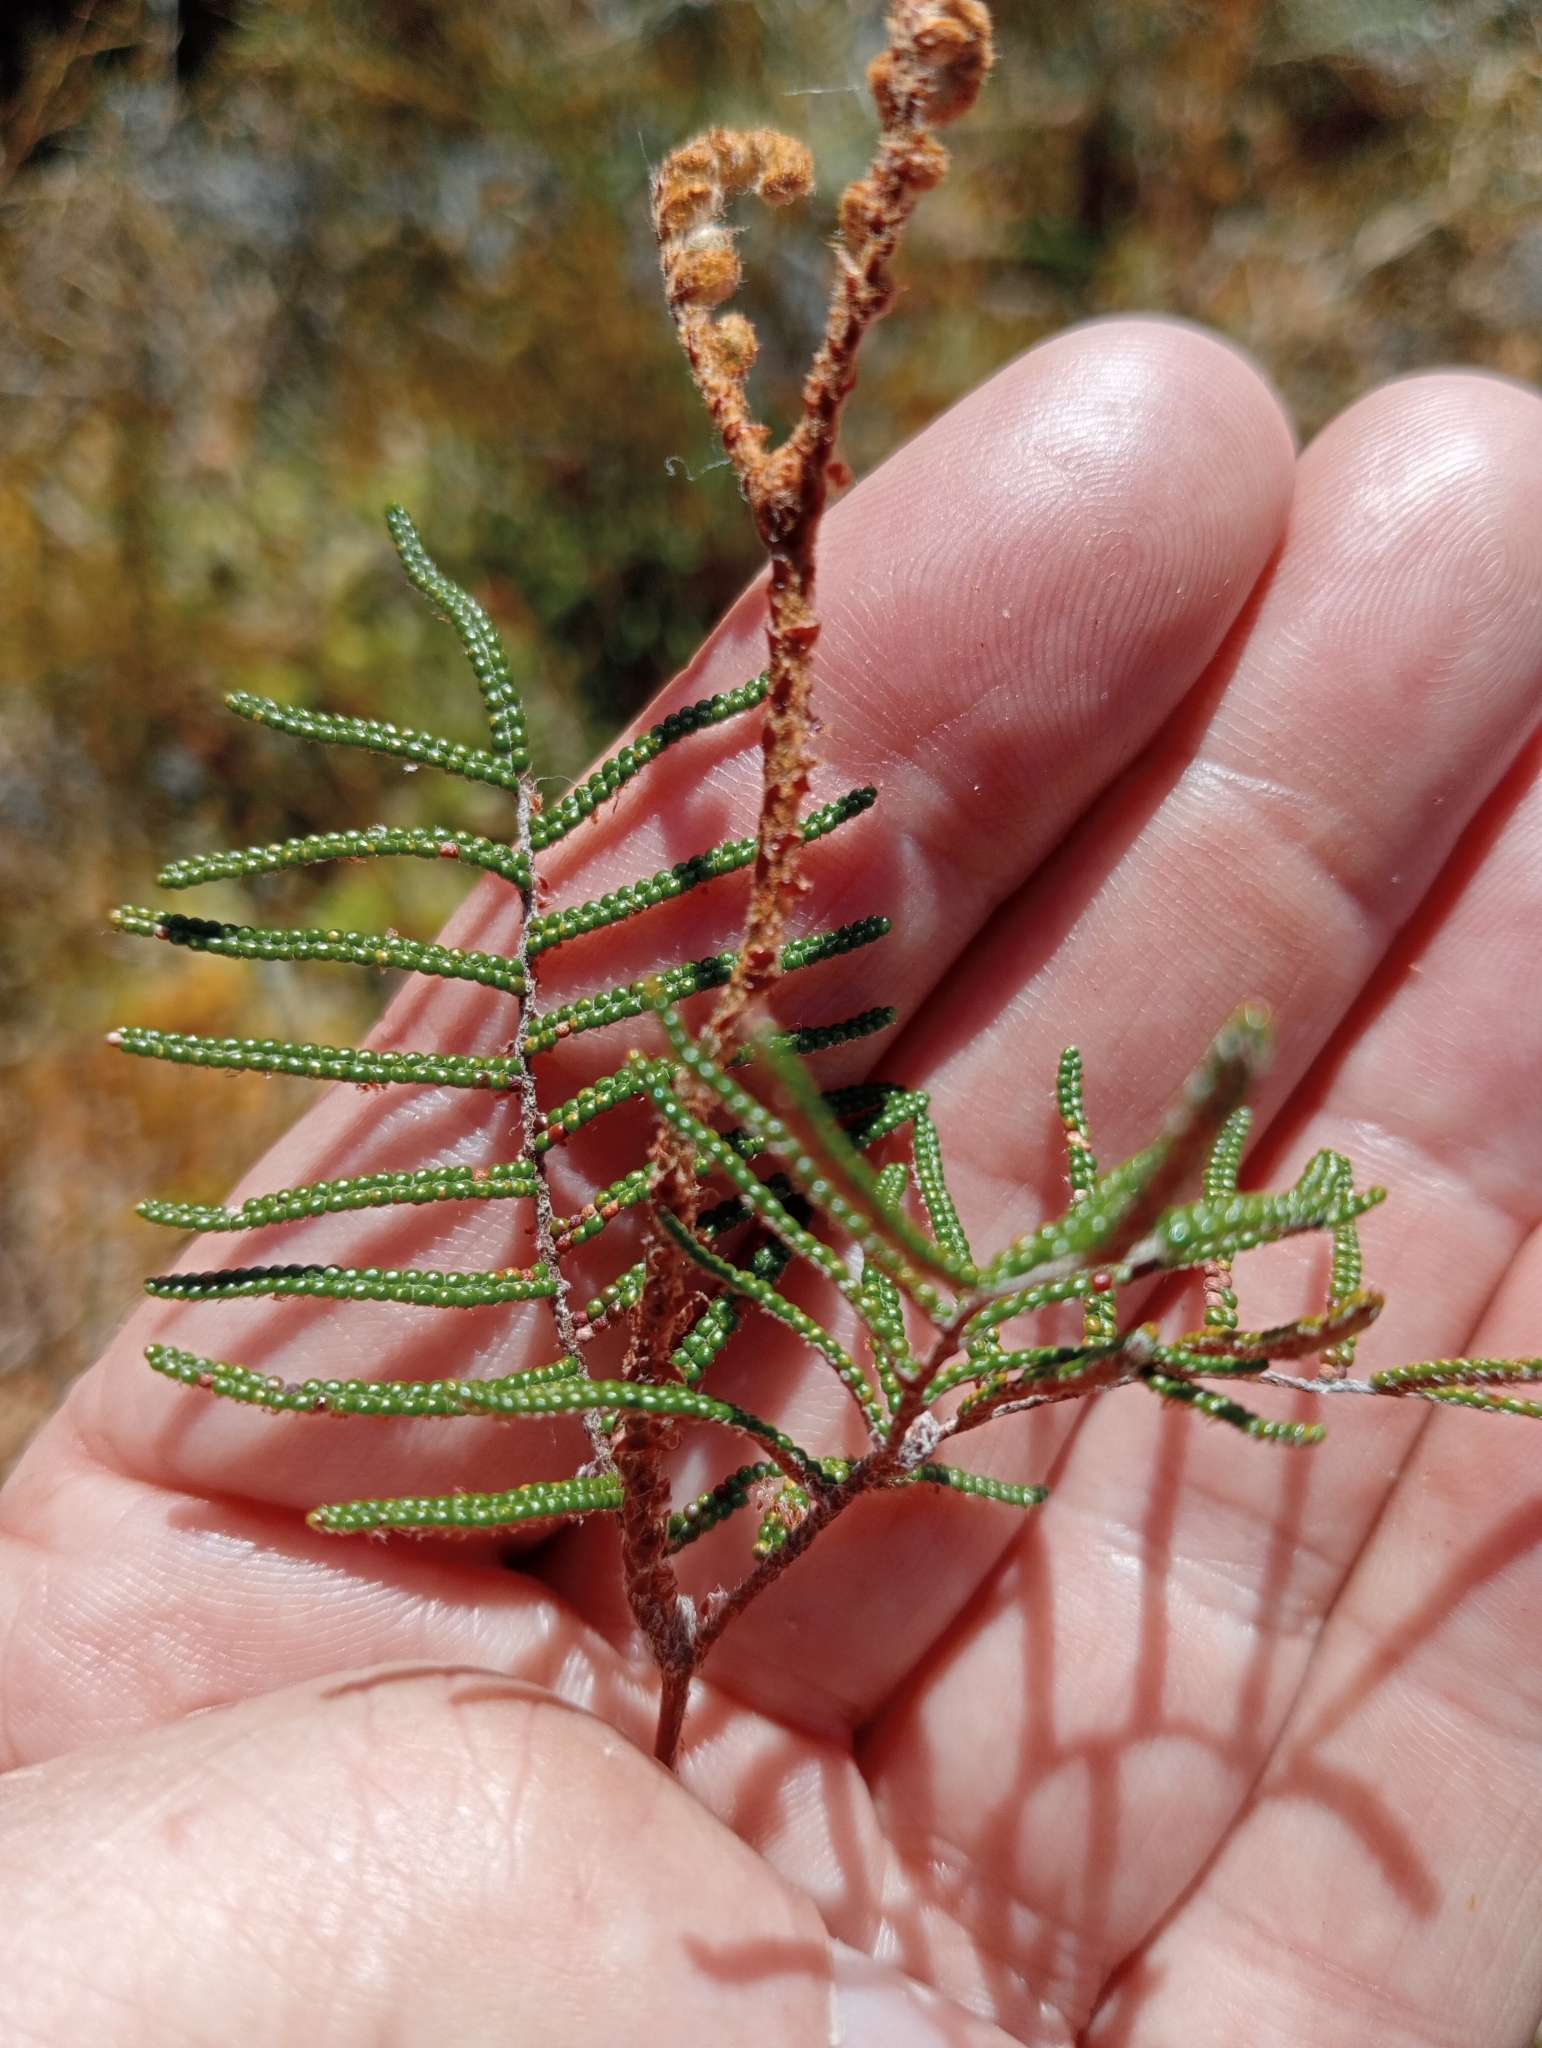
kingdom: Plantae
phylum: Tracheophyta
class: Polypodiopsida
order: Gleicheniales
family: Gleicheniaceae
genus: Gleichenia
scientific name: Gleichenia alpina
